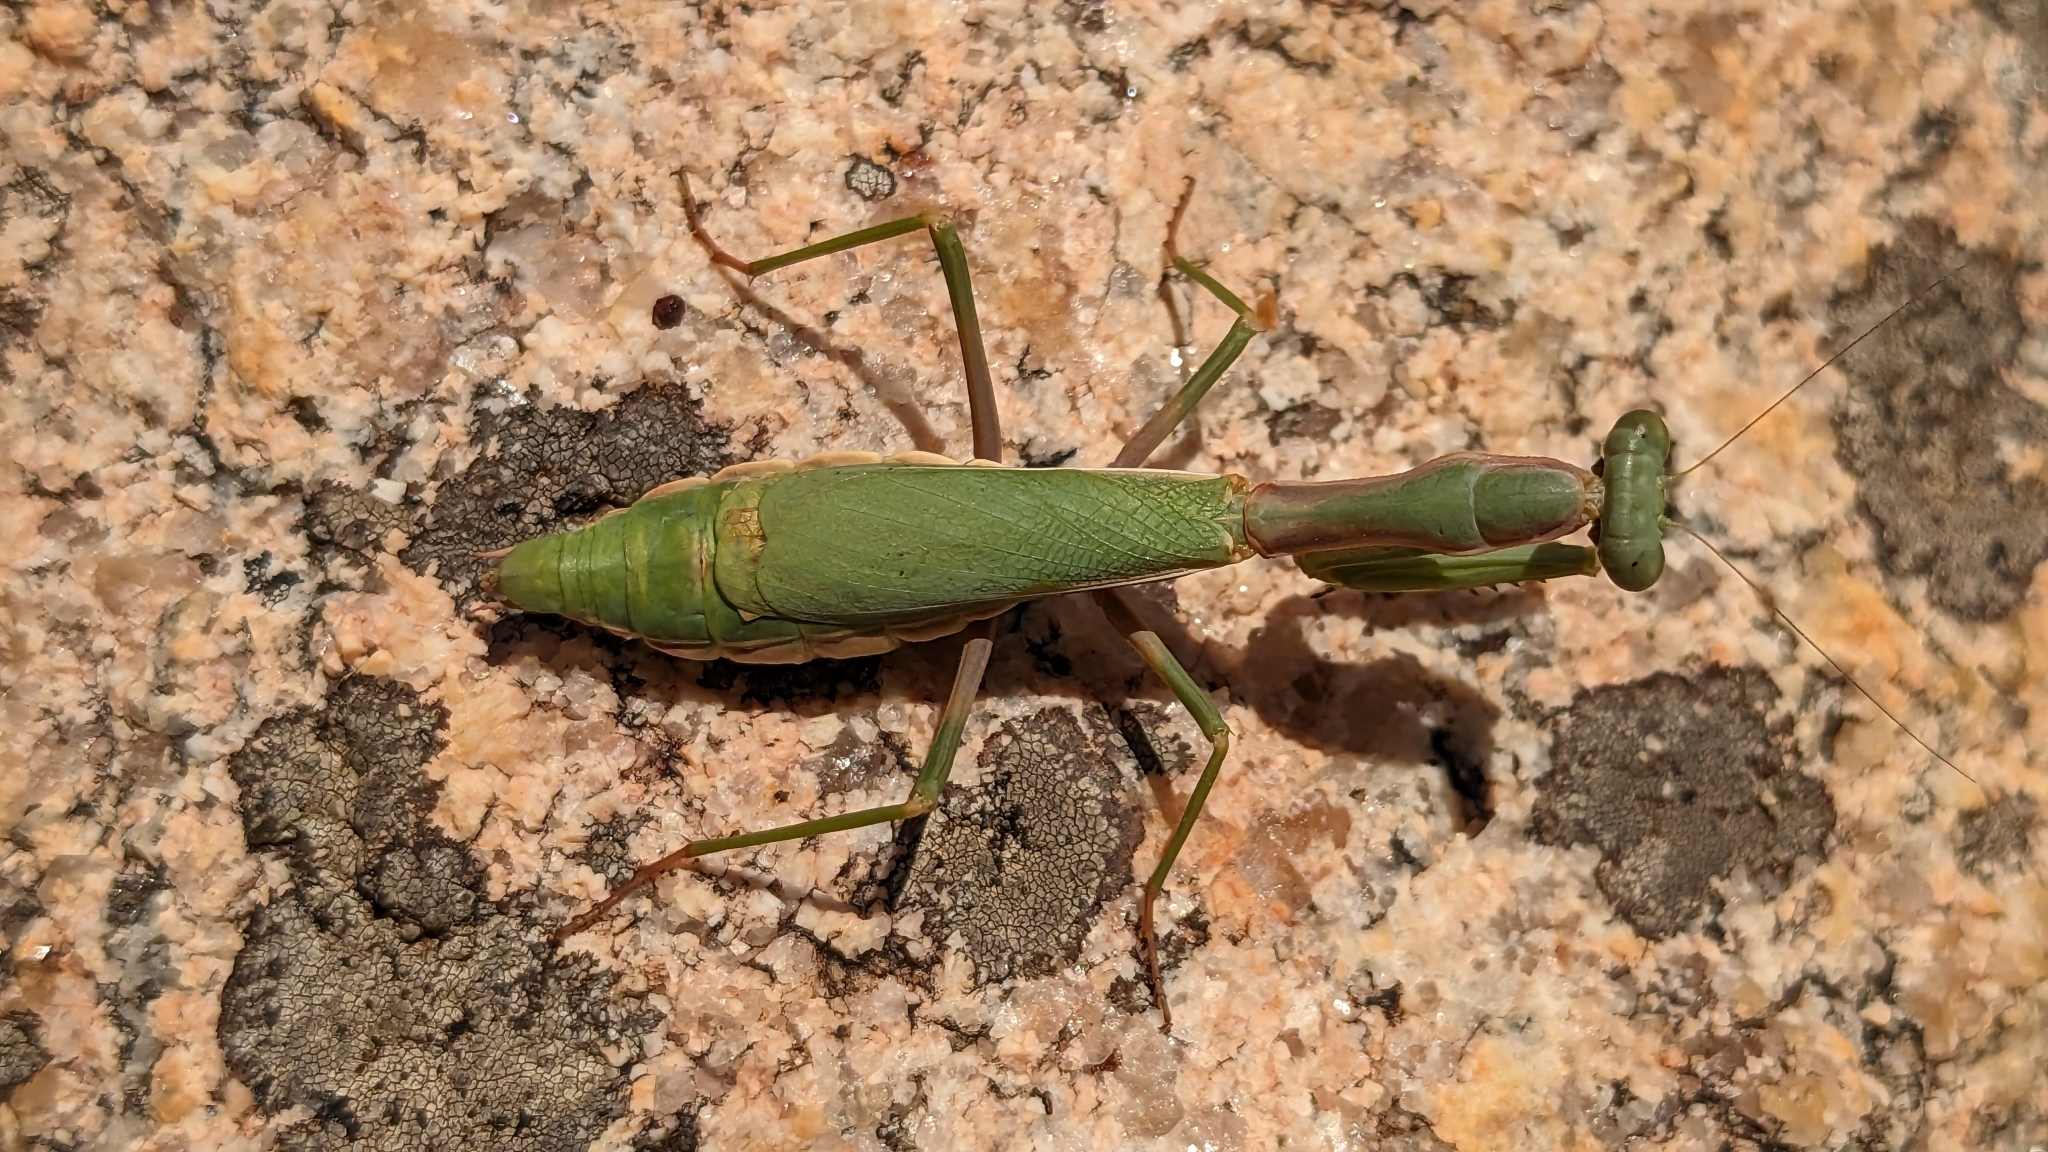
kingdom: Animalia
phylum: Arthropoda
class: Insecta
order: Mantodea
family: Eremiaphilidae
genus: Iris
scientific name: Iris oratoria
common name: Mediterranean mantis
